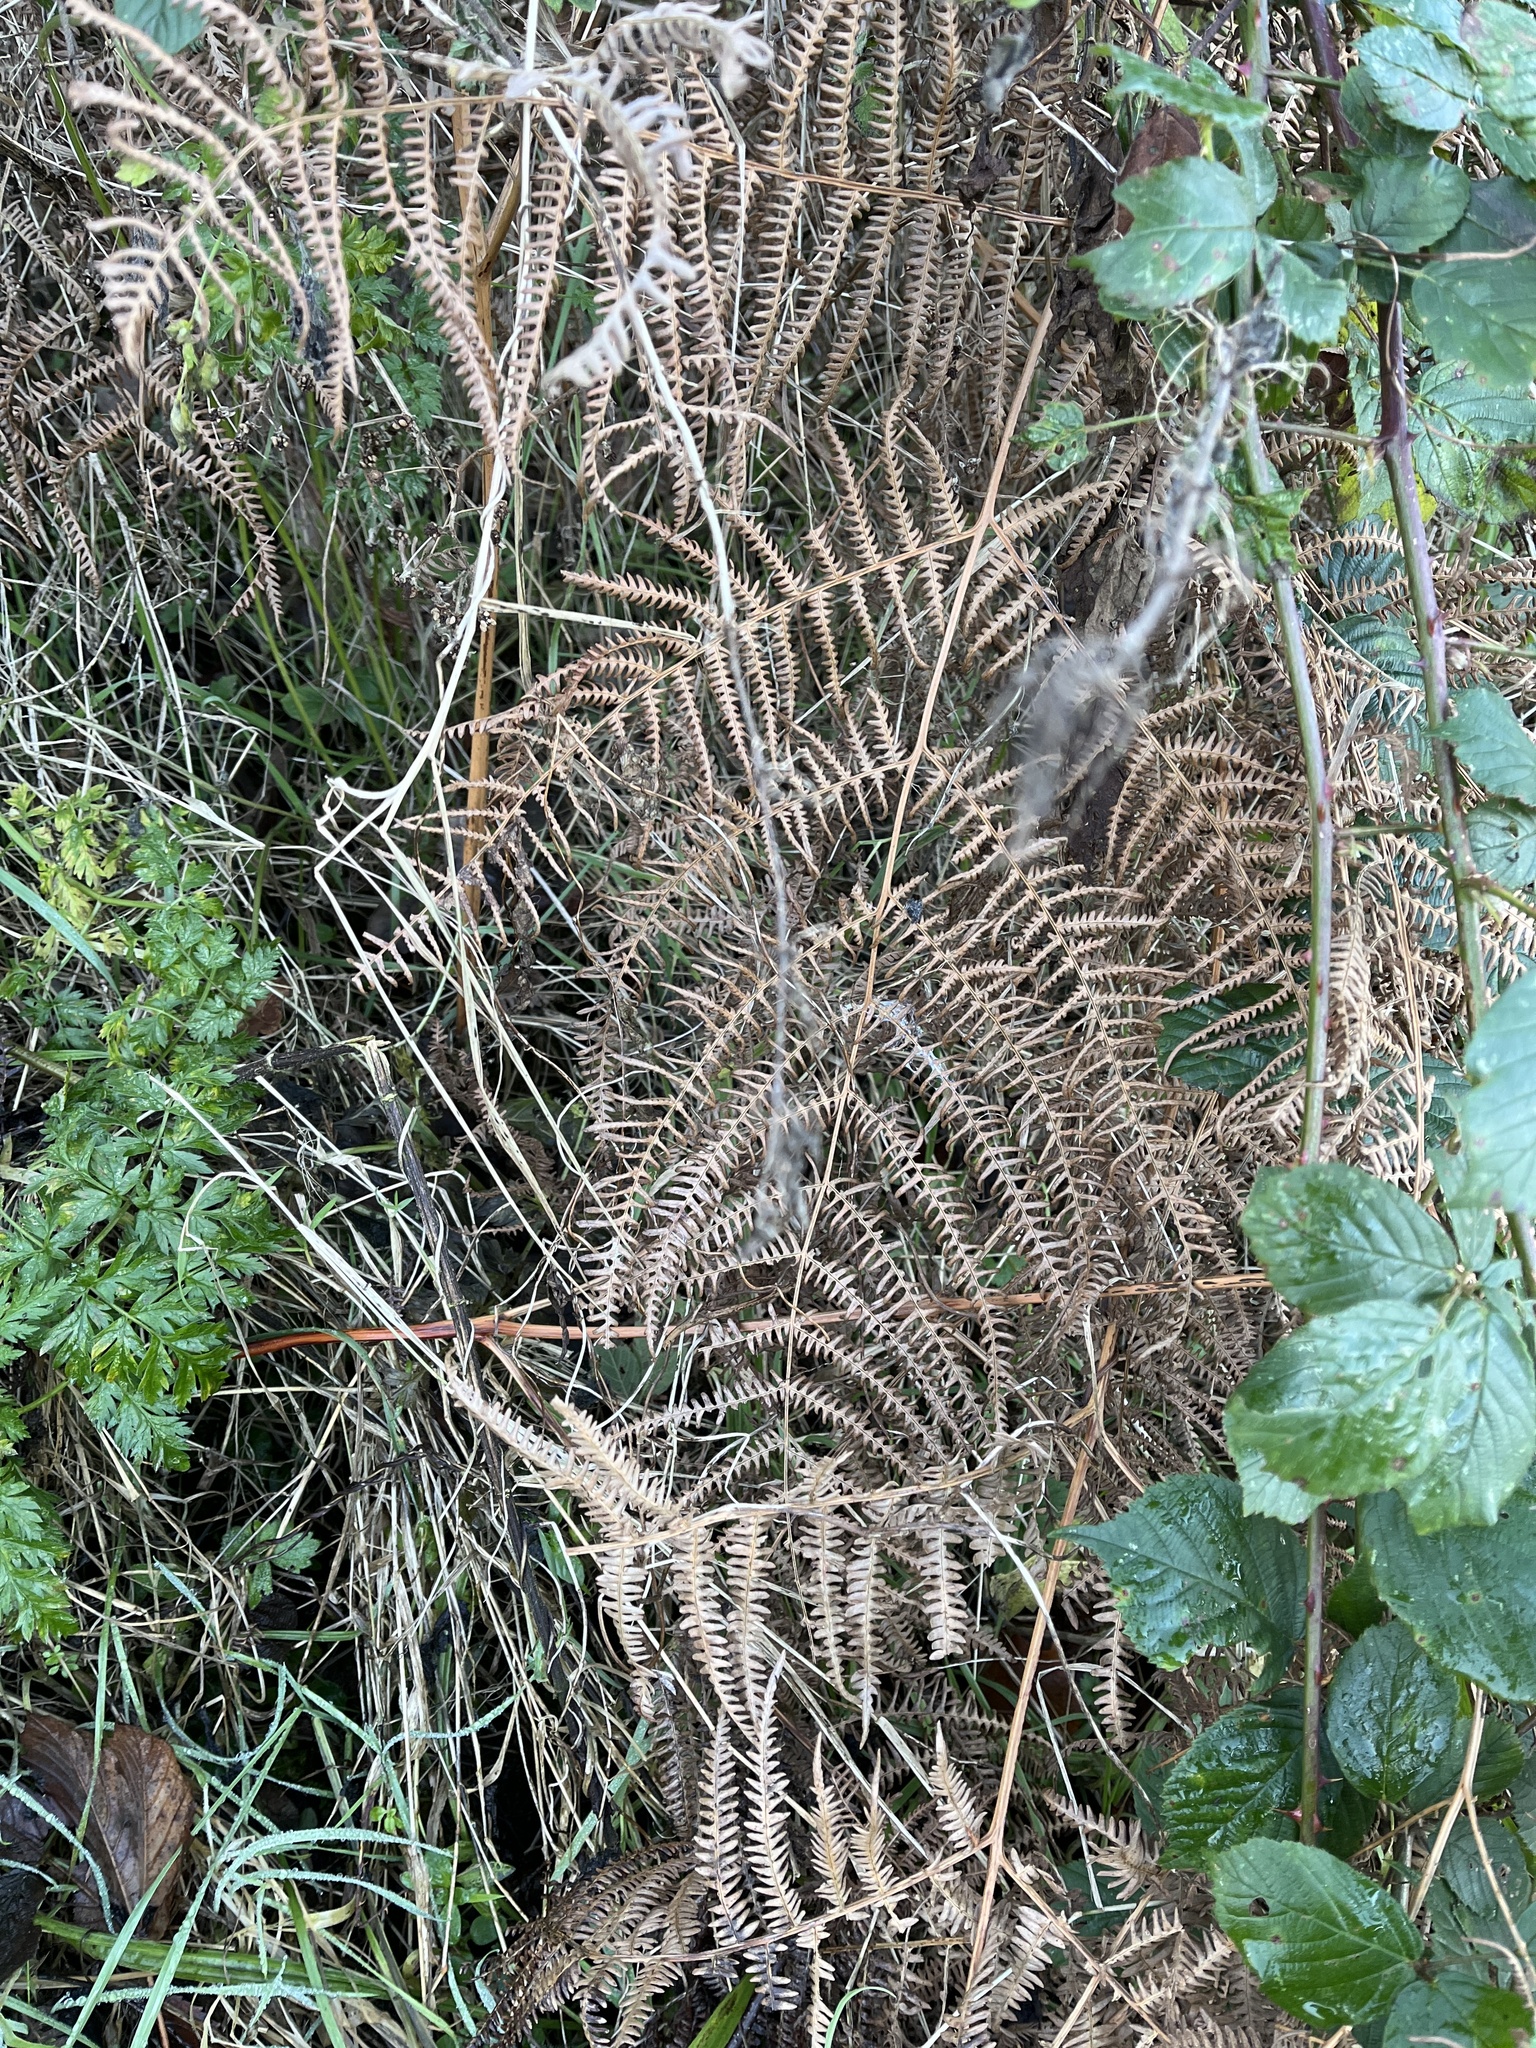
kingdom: Plantae
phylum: Tracheophyta
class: Polypodiopsida
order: Polypodiales
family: Dennstaedtiaceae
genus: Pteridium
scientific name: Pteridium aquilinum
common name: Bracken
